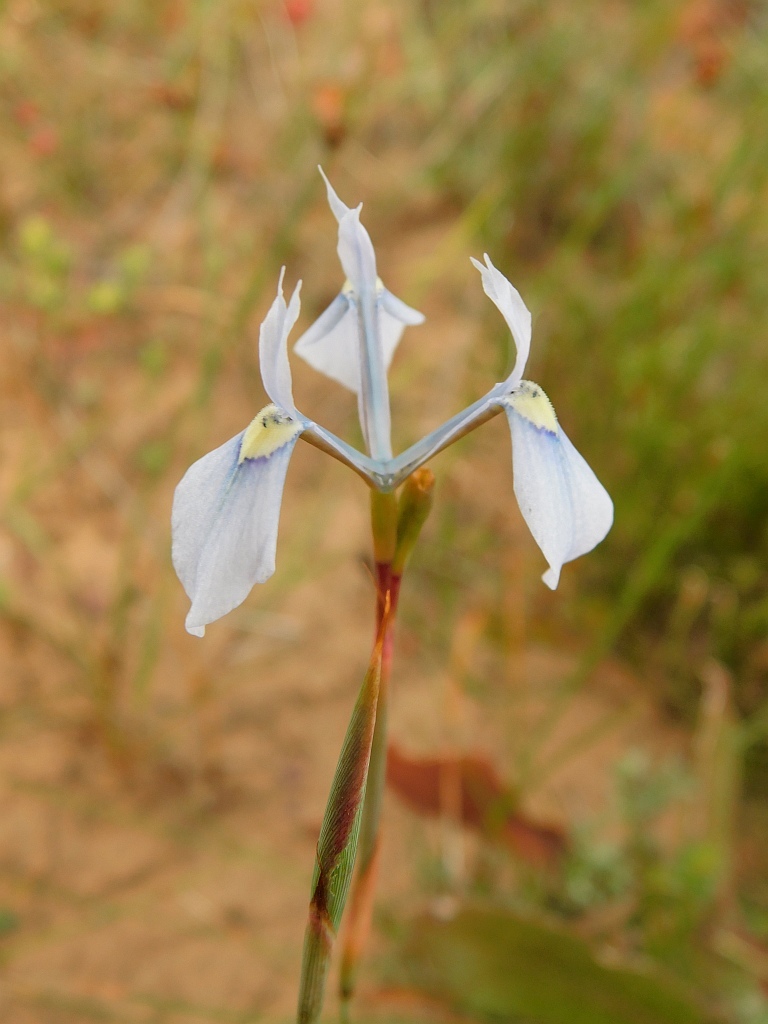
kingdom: Plantae
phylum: Tracheophyta
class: Liliopsida
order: Asparagales
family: Iridaceae
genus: Moraea
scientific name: Moraea tripetala
